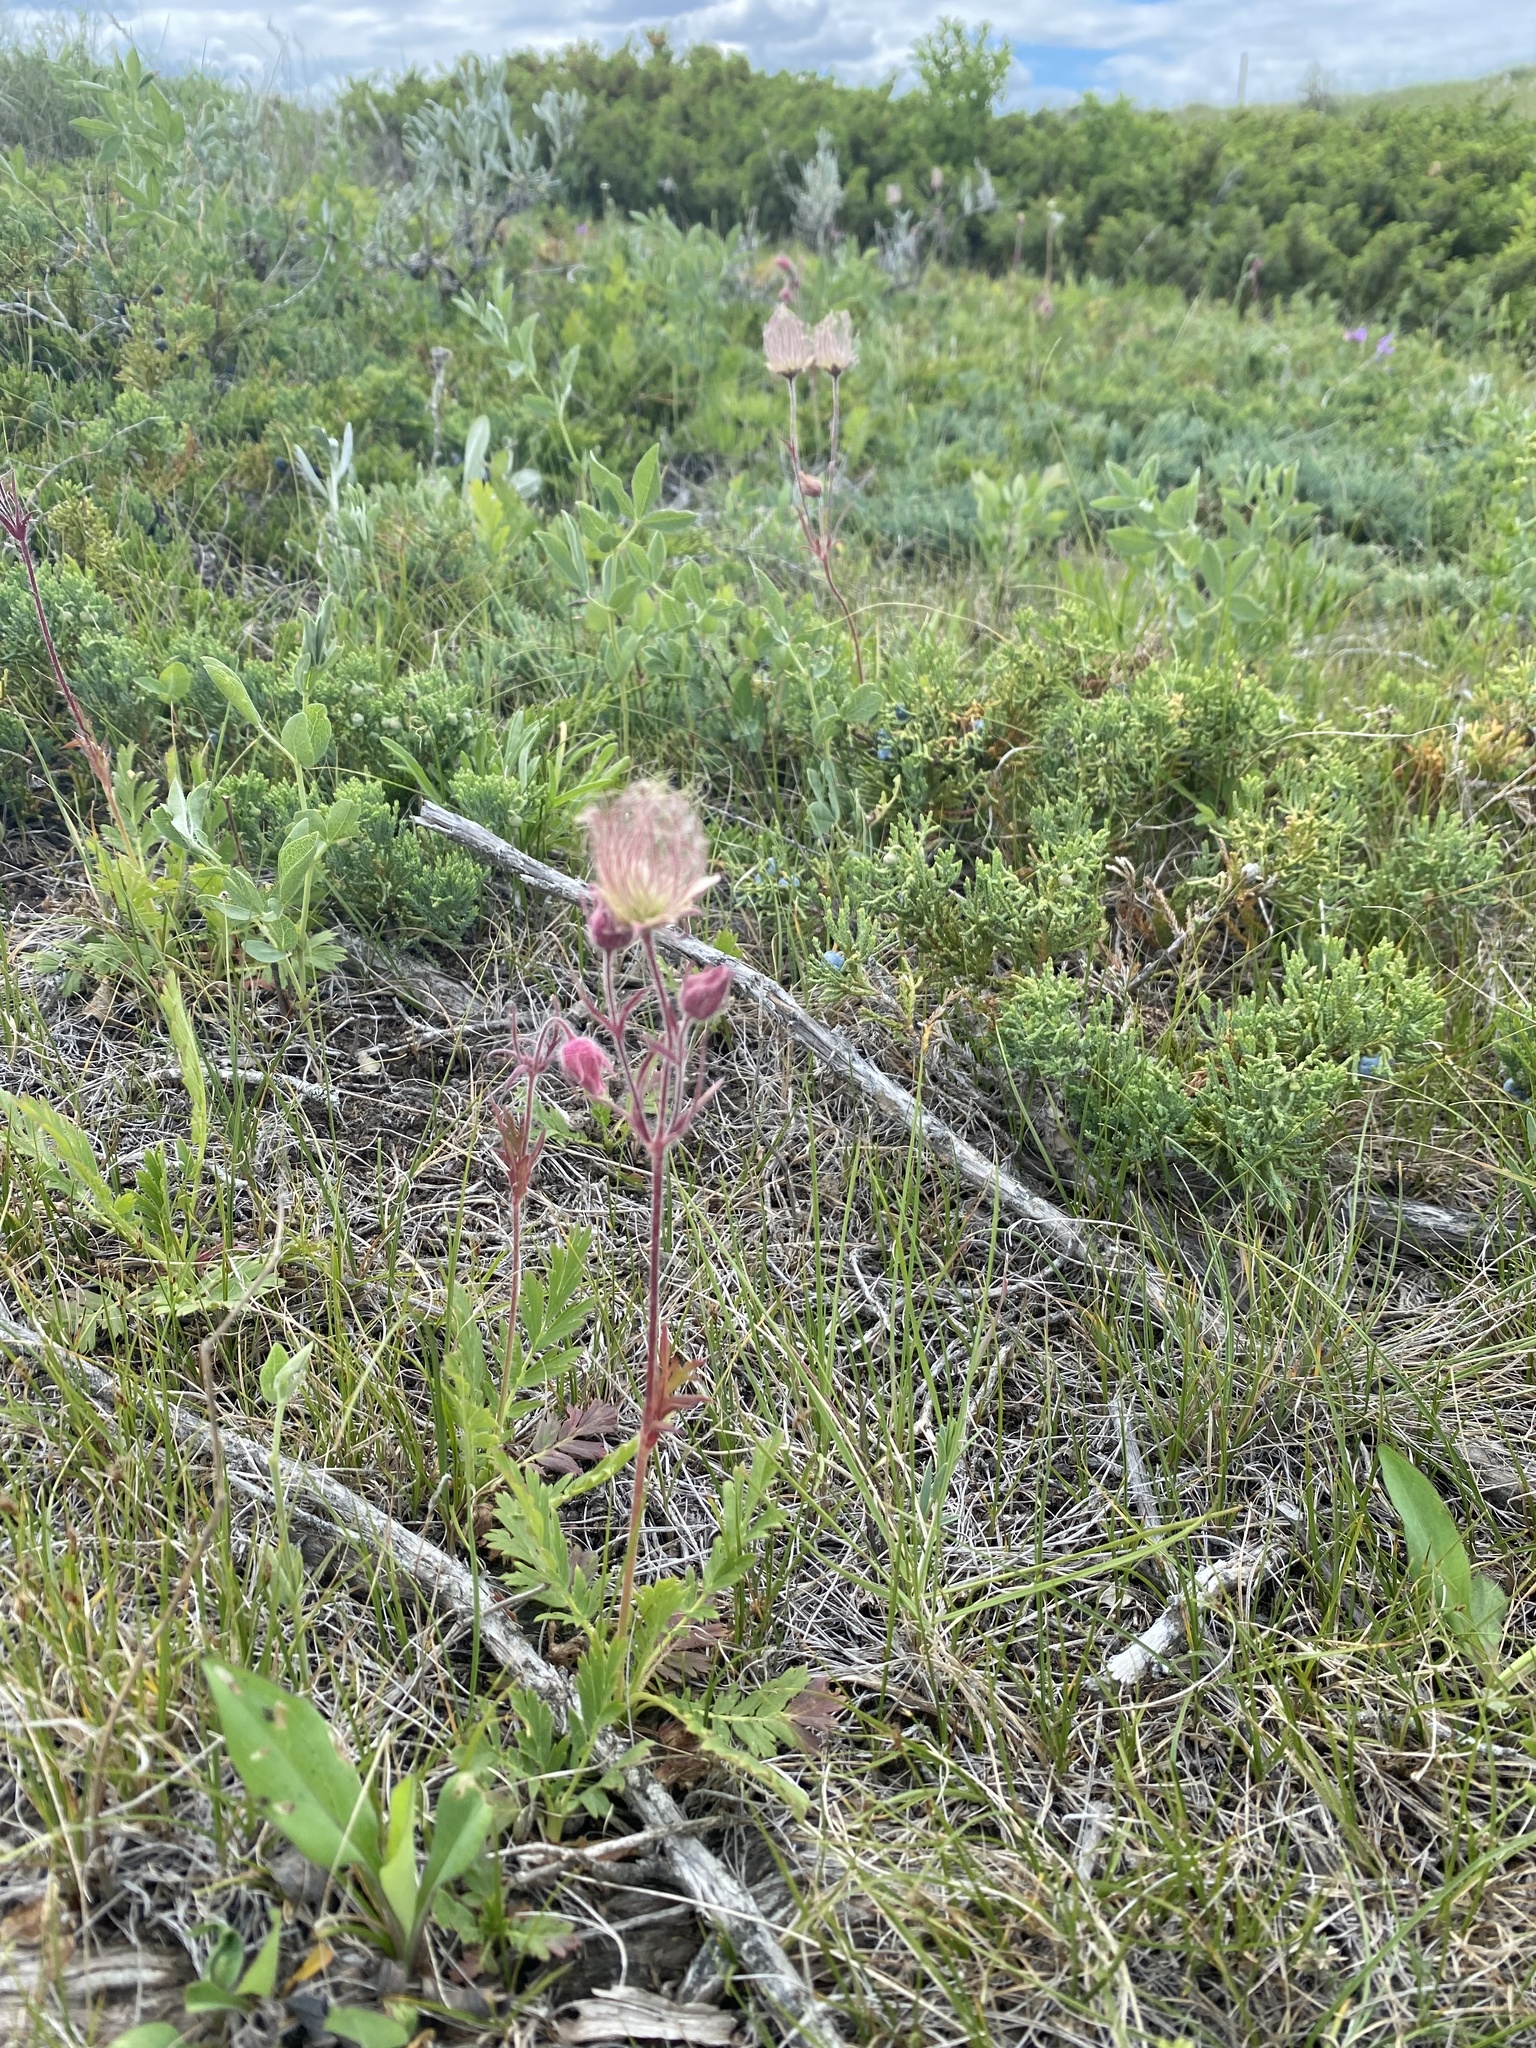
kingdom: Plantae
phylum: Tracheophyta
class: Magnoliopsida
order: Rosales
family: Rosaceae
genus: Geum
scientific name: Geum triflorum
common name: Old man's whiskers
